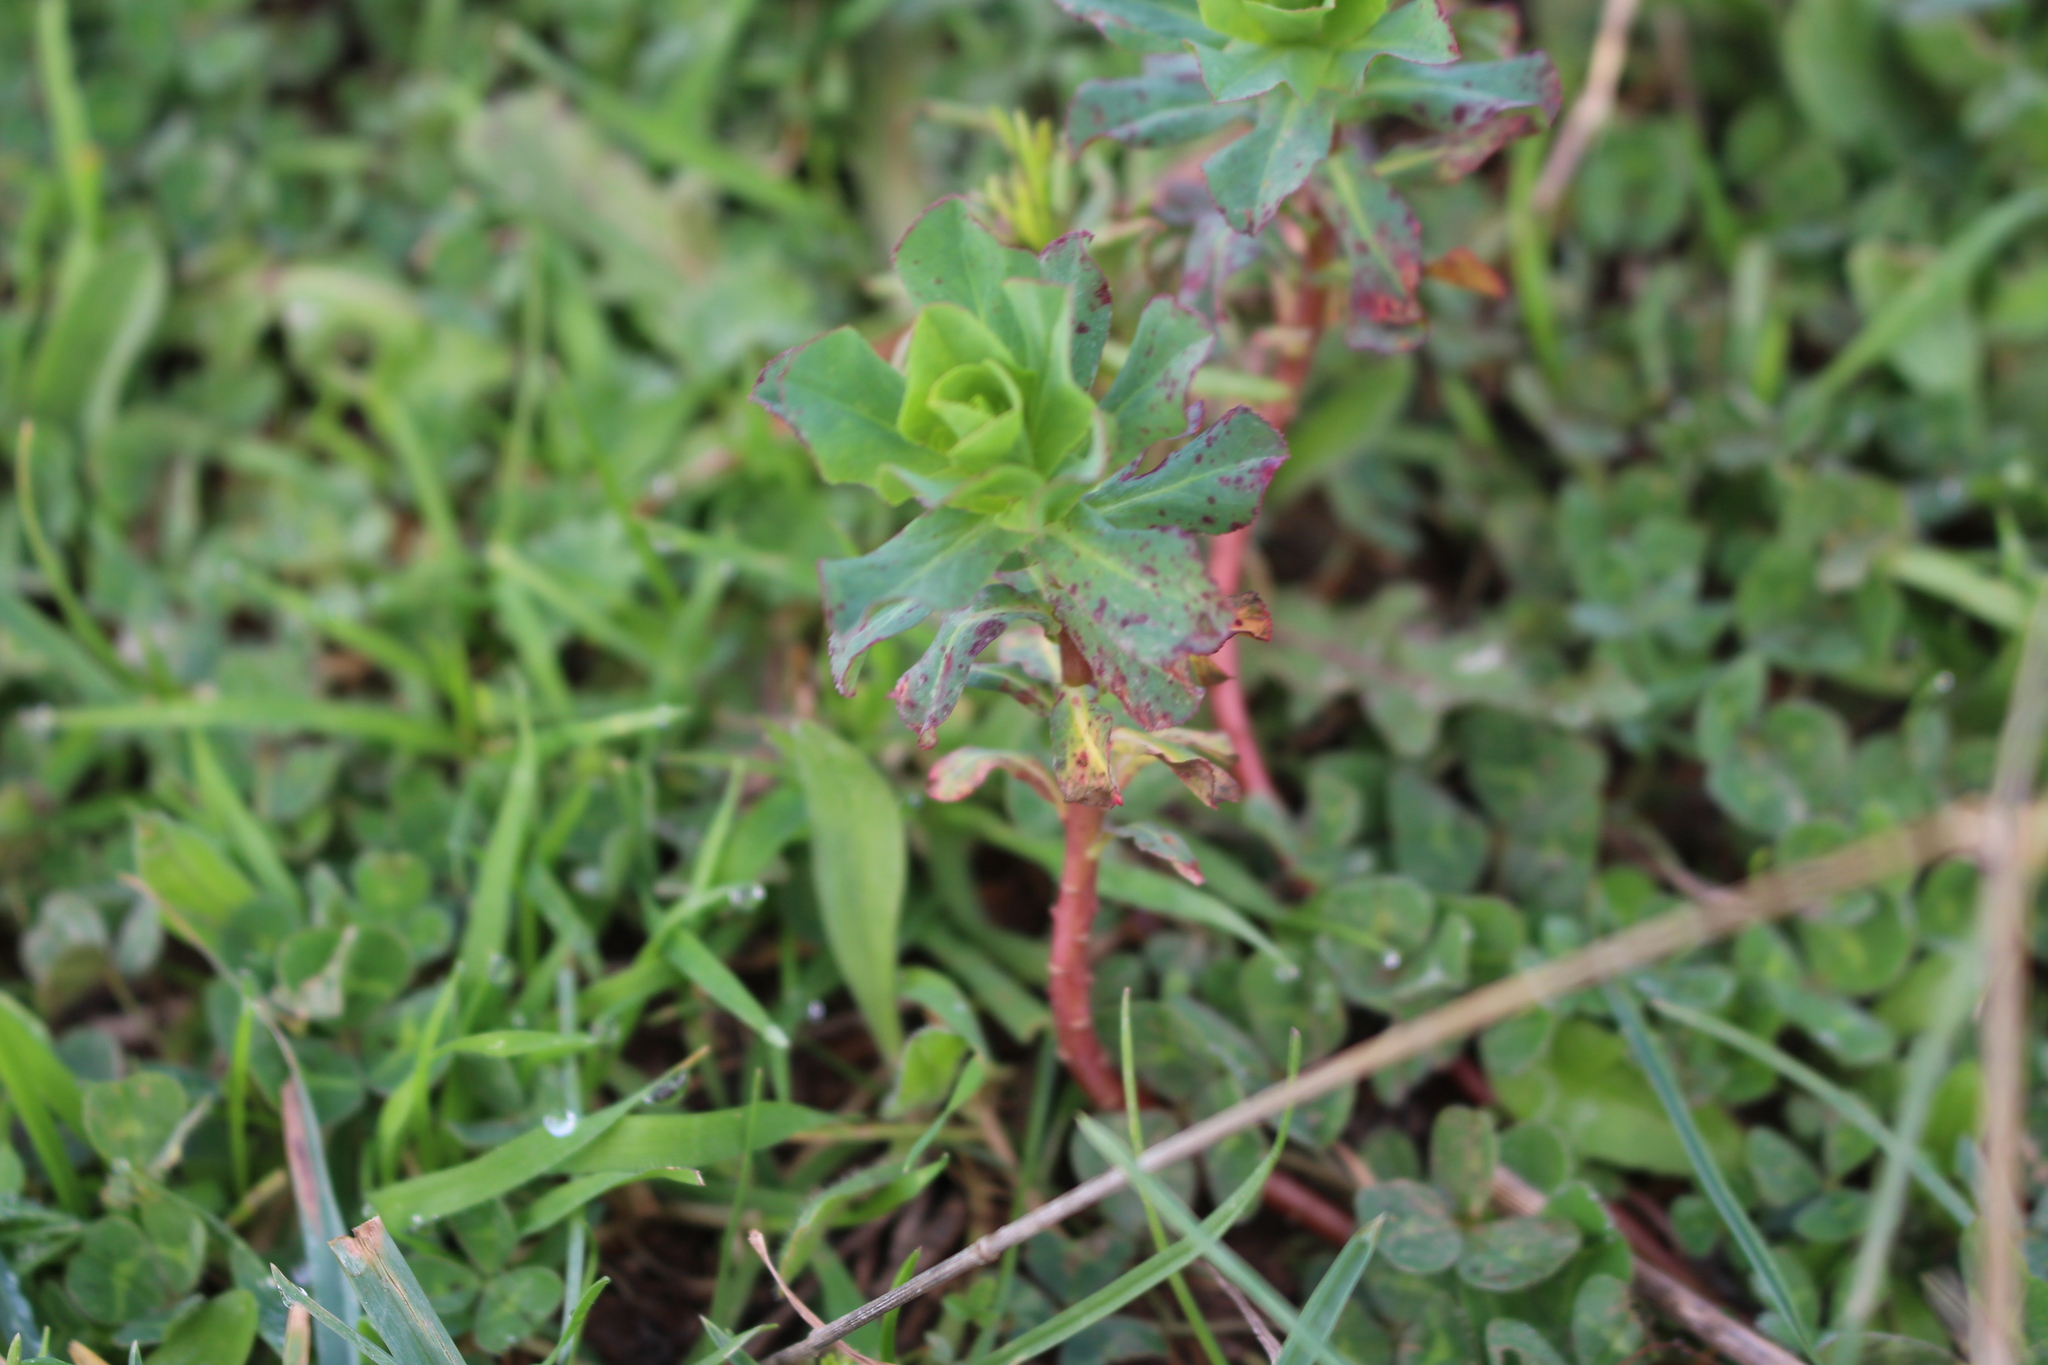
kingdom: Plantae
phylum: Tracheophyta
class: Magnoliopsida
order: Malpighiales
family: Euphorbiaceae
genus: Euphorbia
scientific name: Euphorbia helioscopia
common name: Sun spurge
